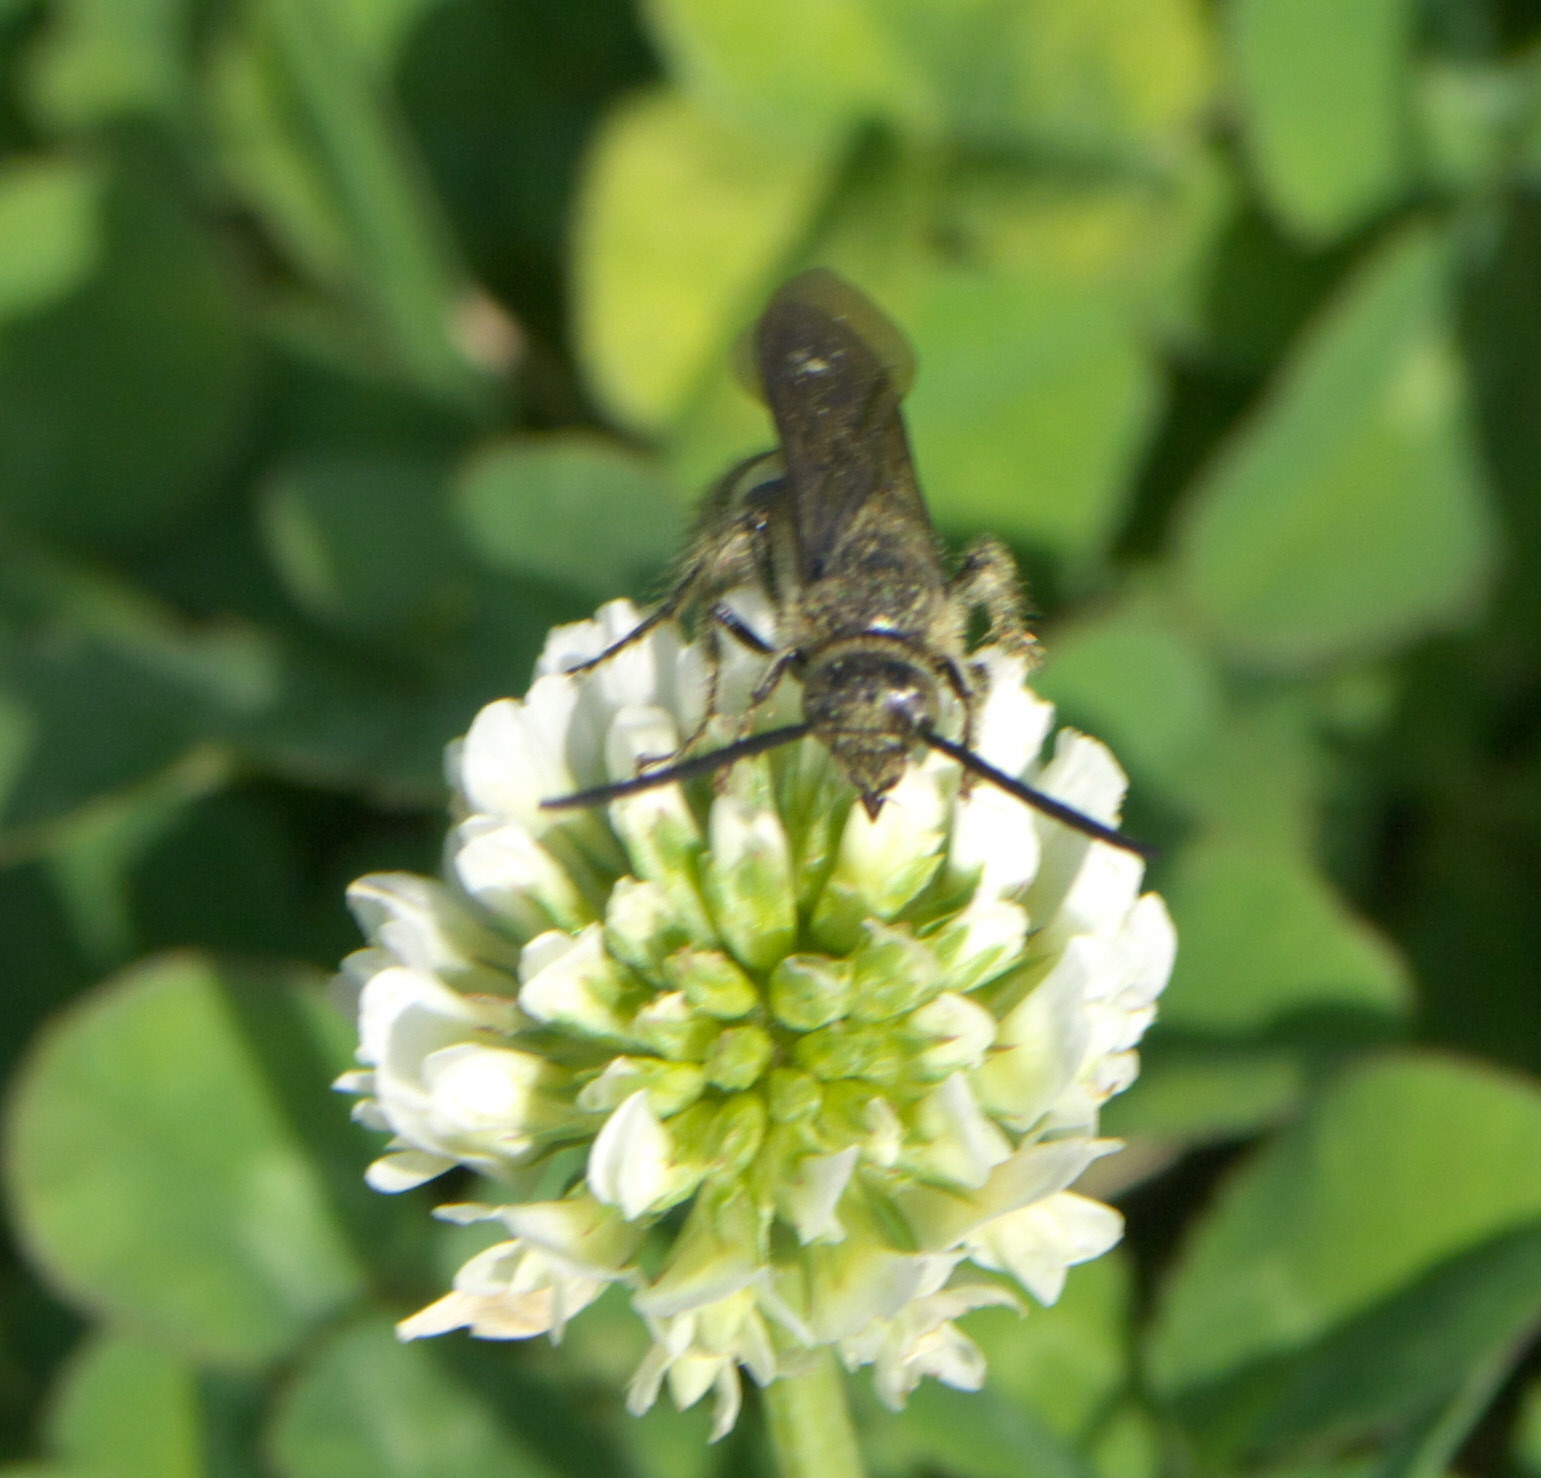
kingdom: Animalia
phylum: Arthropoda
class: Insecta
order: Hymenoptera
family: Scoliidae
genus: Dielis
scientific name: Dielis
